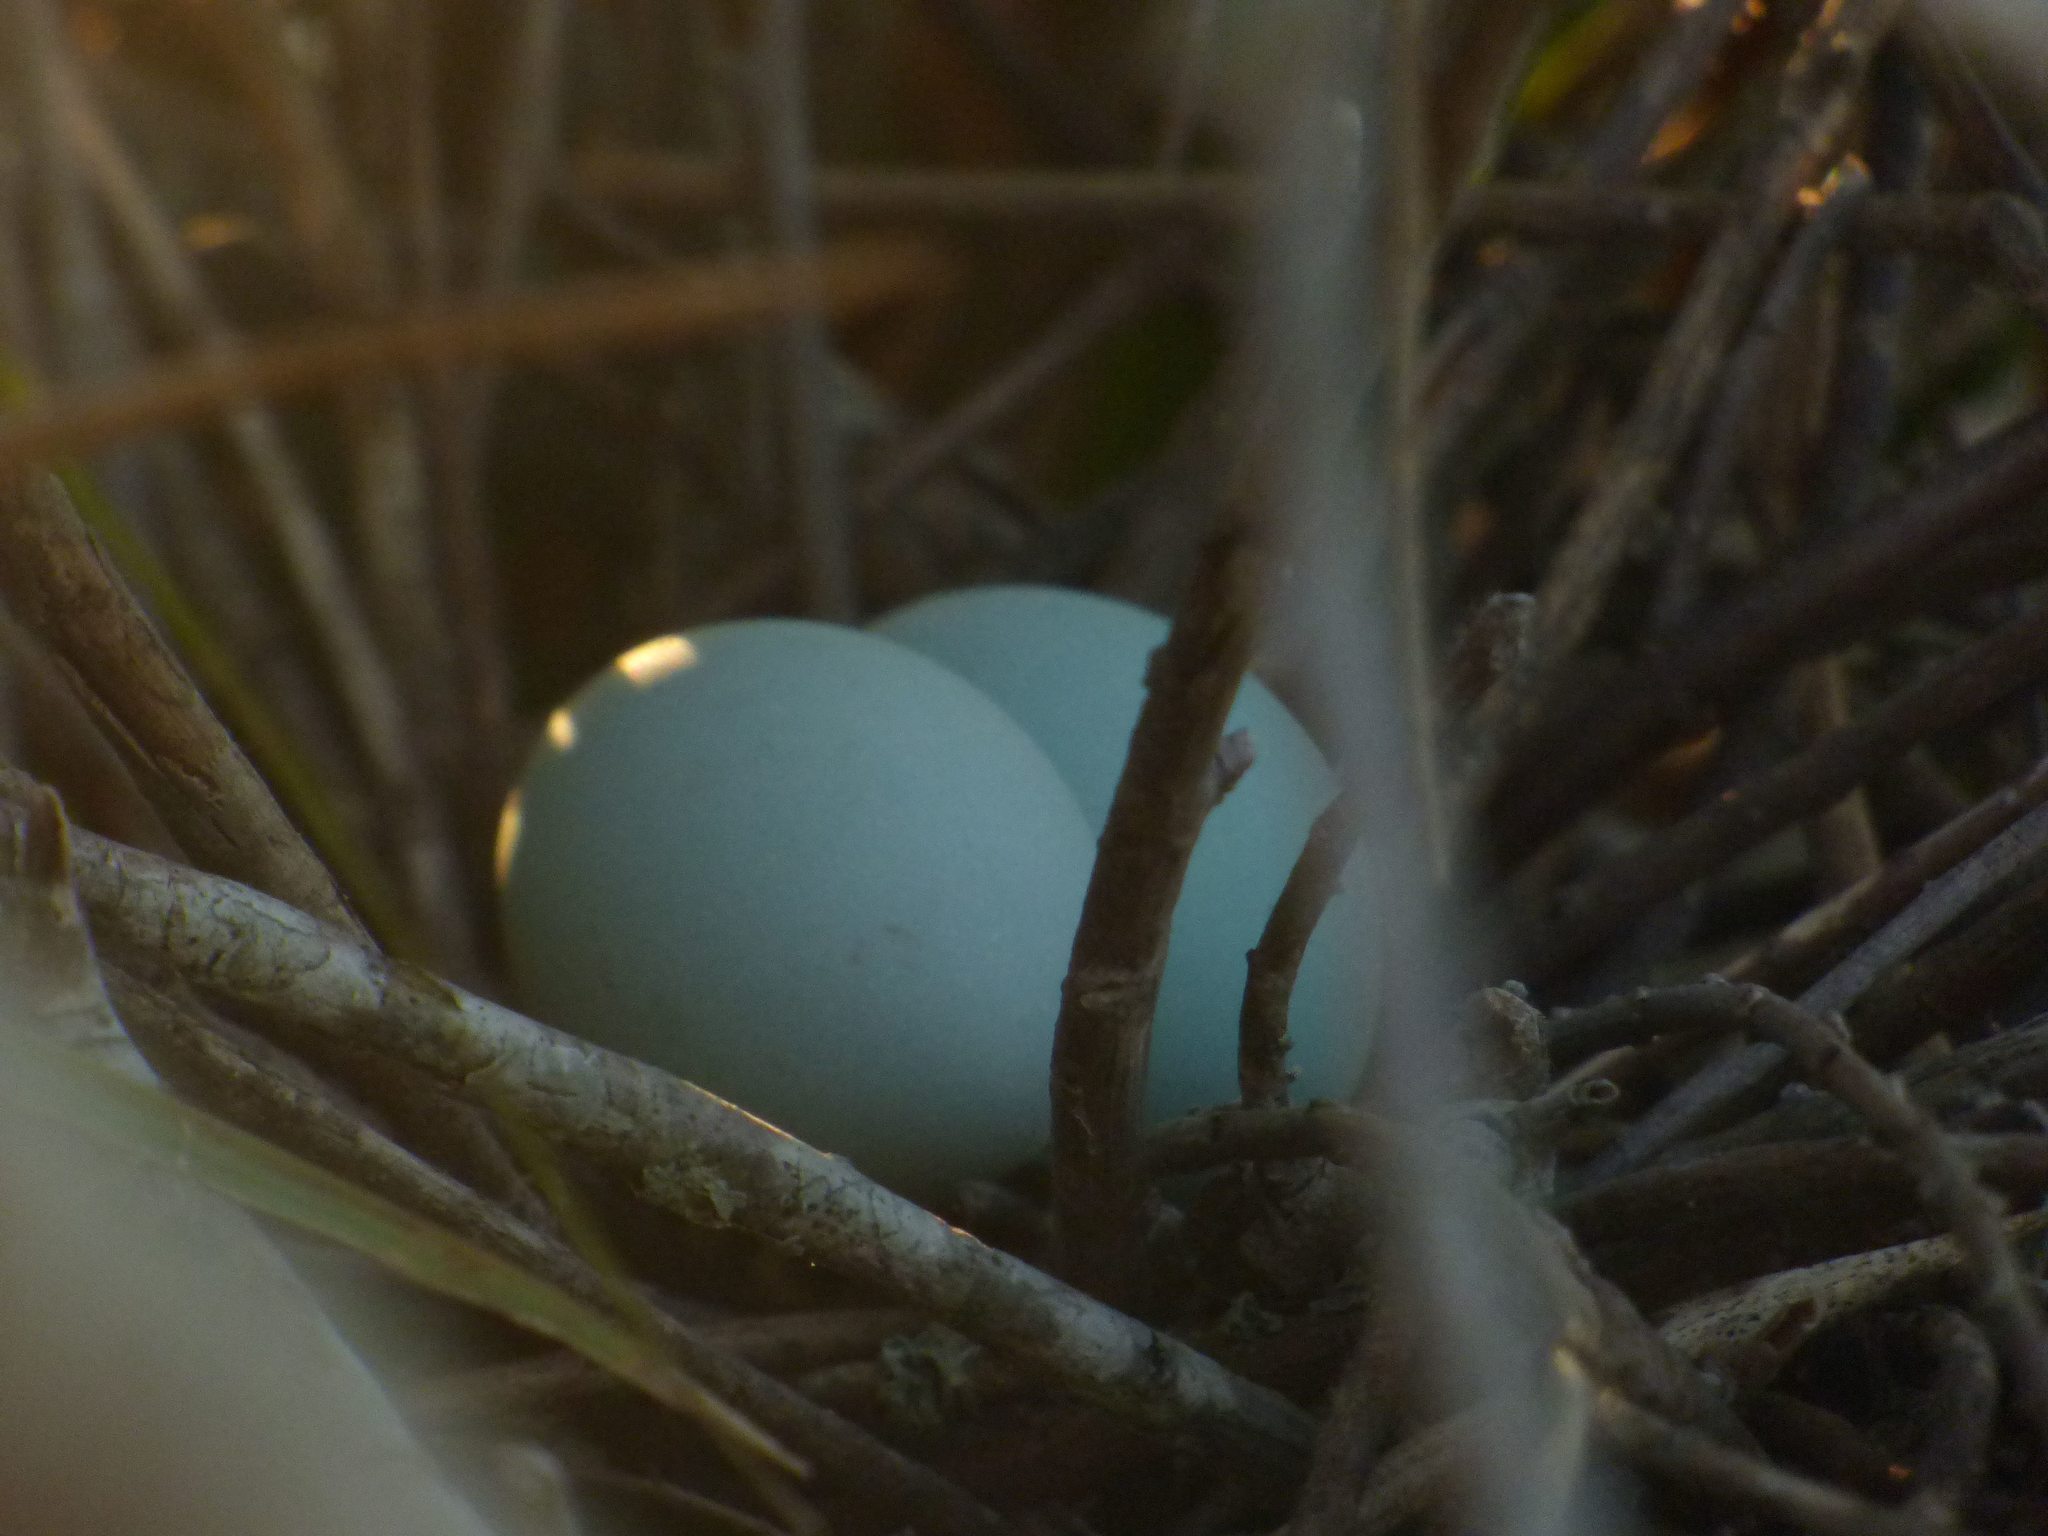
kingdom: Animalia
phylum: Chordata
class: Aves
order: Pelecaniformes
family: Ardeidae
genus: Butorides
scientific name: Butorides striata
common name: Striated heron
